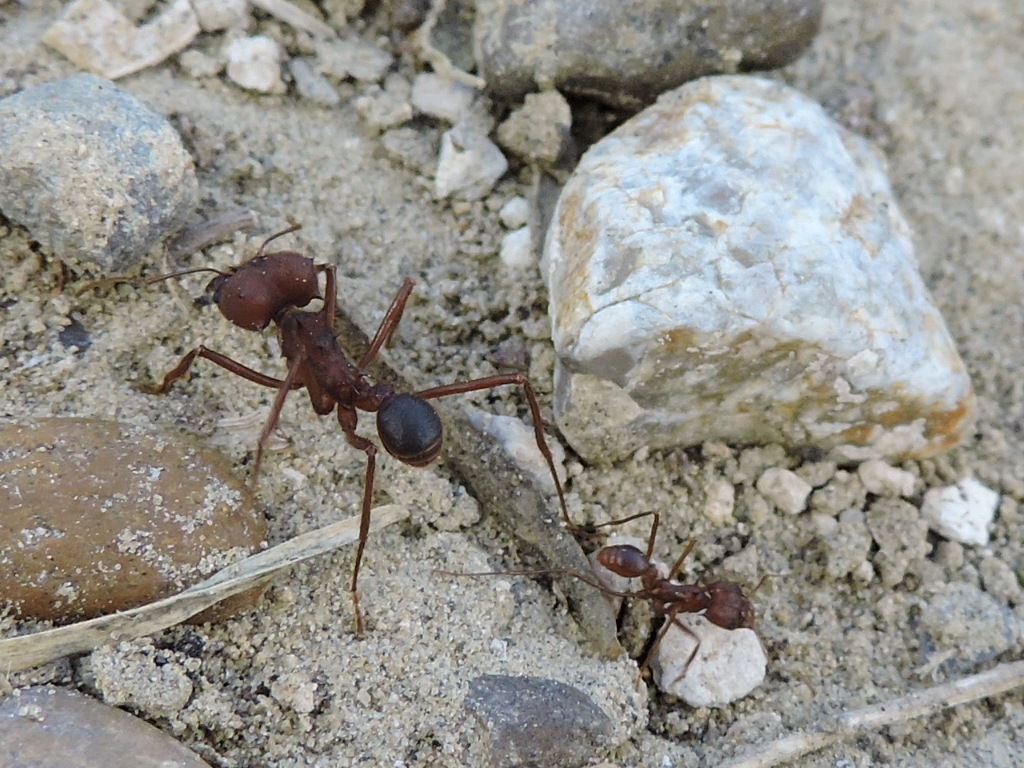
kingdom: Animalia
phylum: Arthropoda
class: Insecta
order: Hymenoptera
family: Formicidae
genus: Atta
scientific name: Atta texana
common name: Texas leafcutting ant
